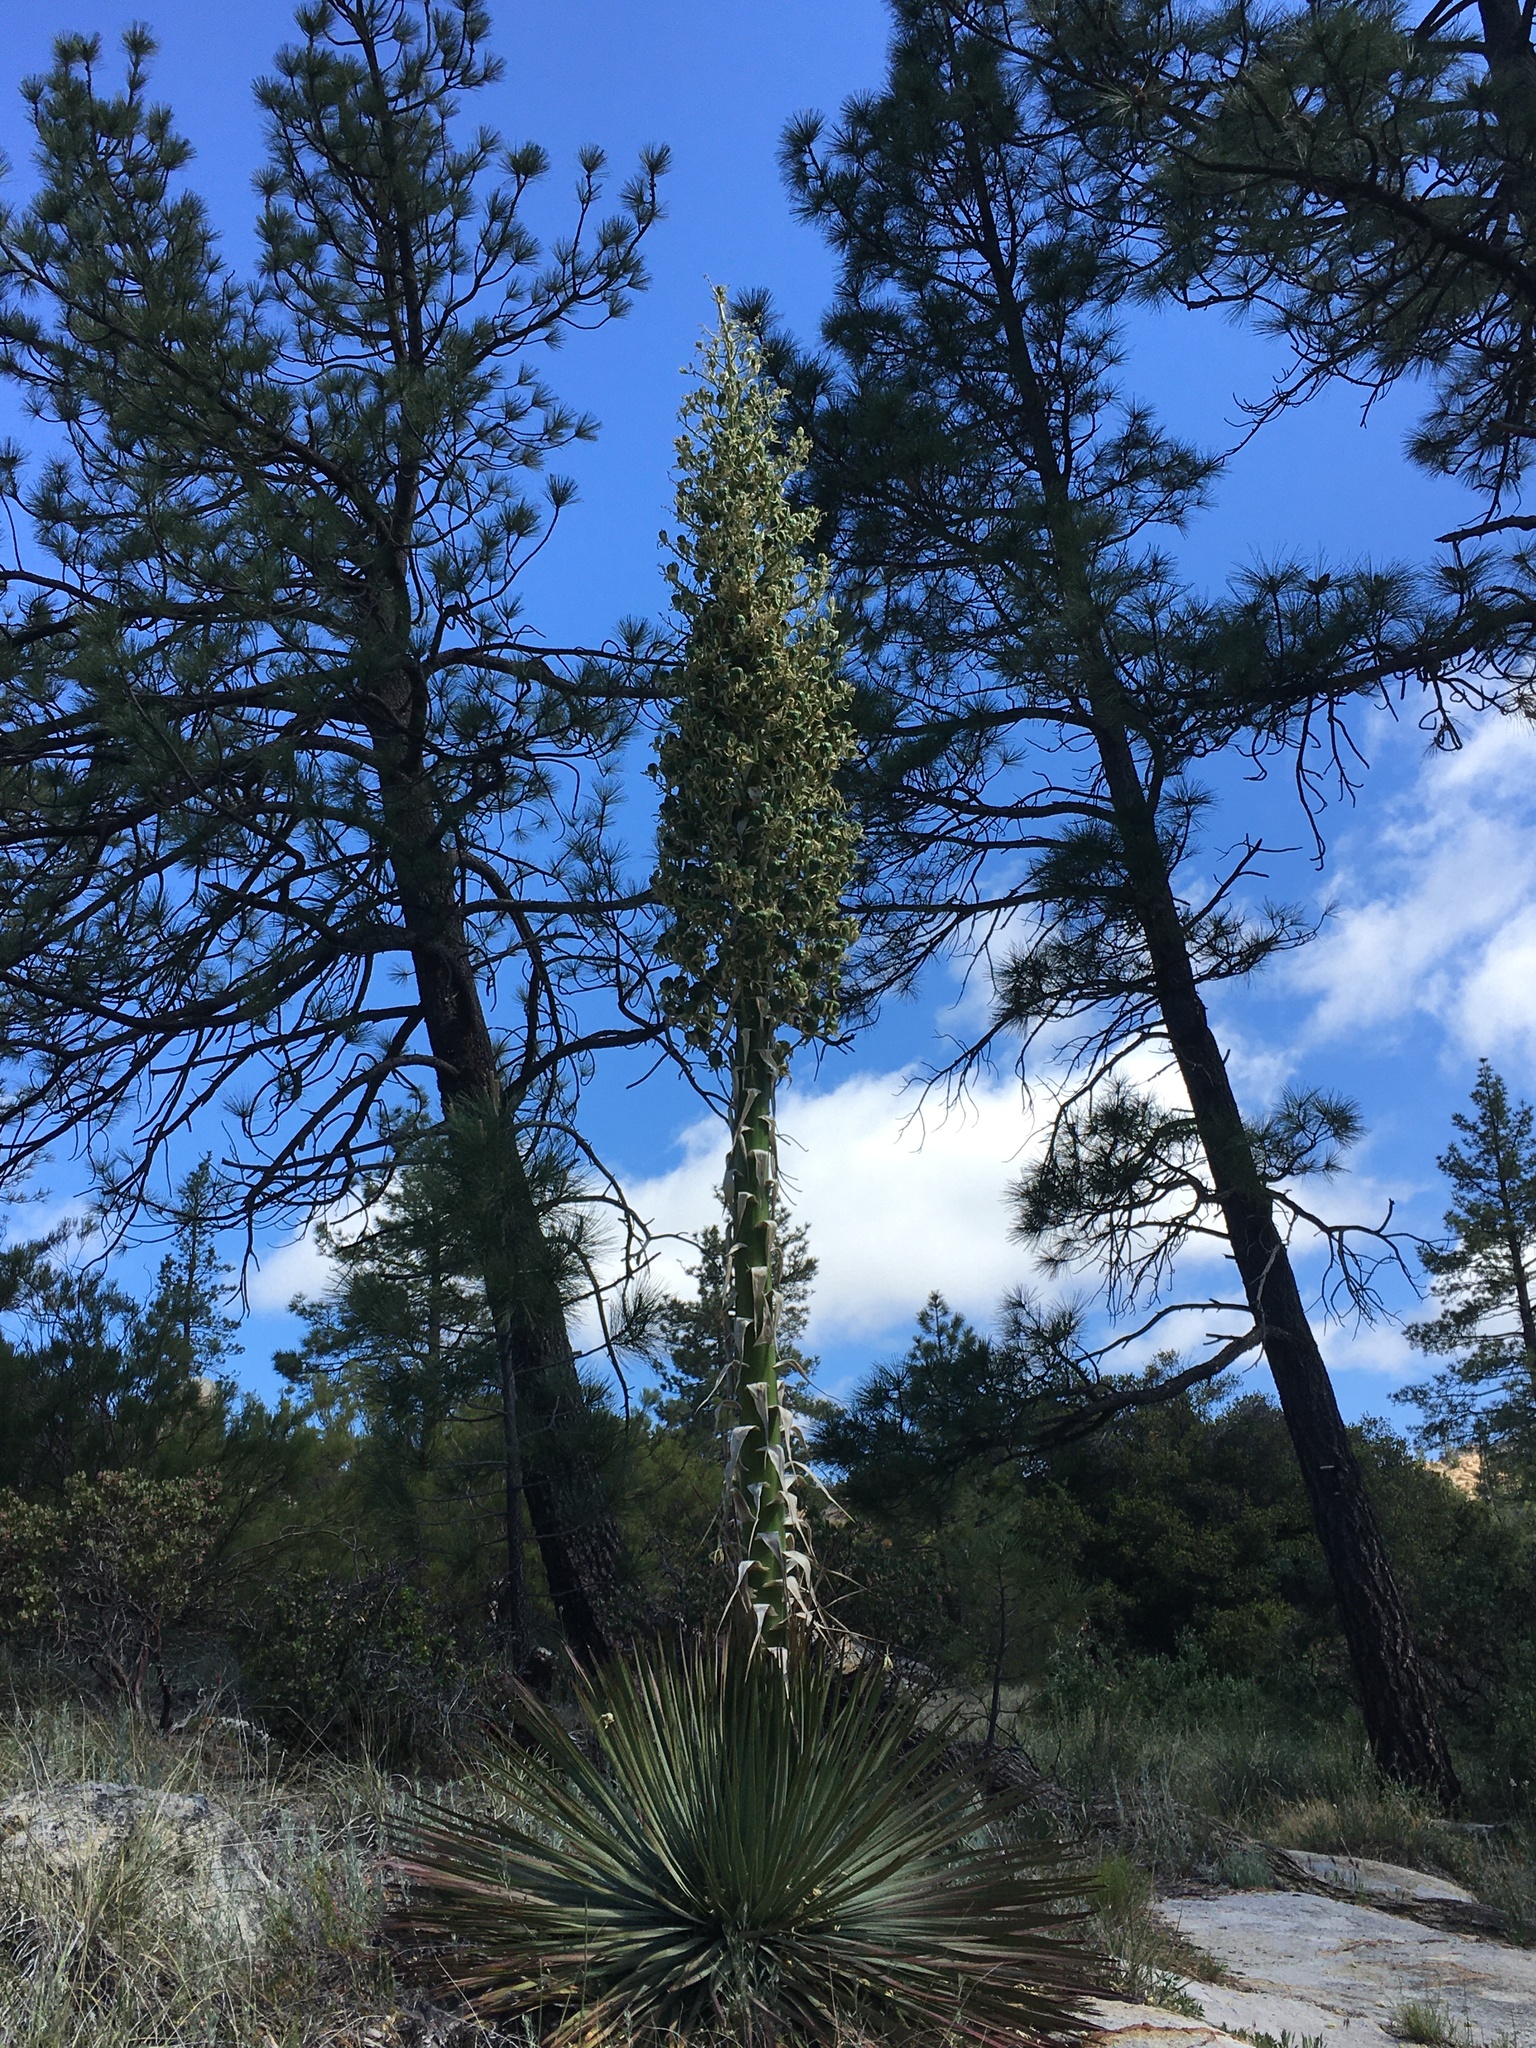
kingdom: Plantae
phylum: Tracheophyta
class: Liliopsida
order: Asparagales
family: Asparagaceae
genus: Hesperoyucca
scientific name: Hesperoyucca whipplei
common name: Our lord's-candle
